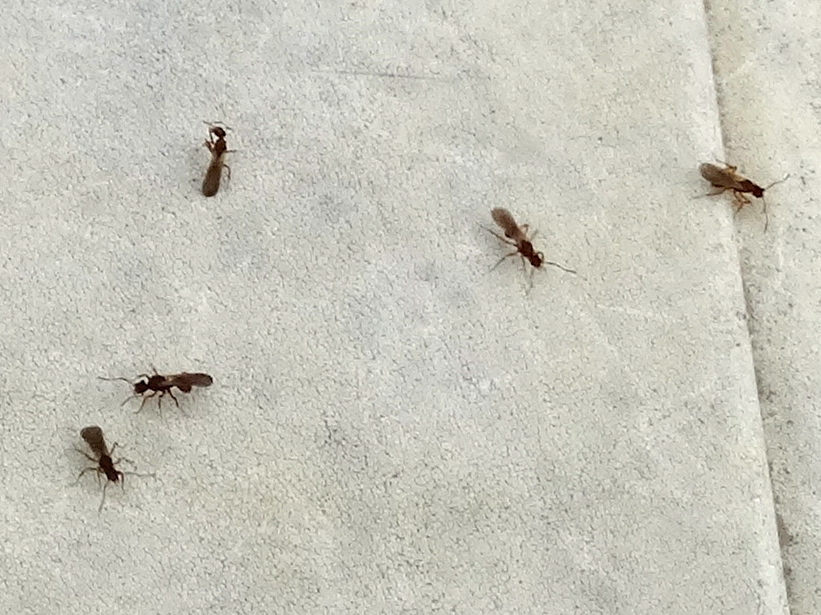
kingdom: Animalia
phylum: Arthropoda
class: Insecta
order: Hymenoptera
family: Formicidae
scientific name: Formicidae
